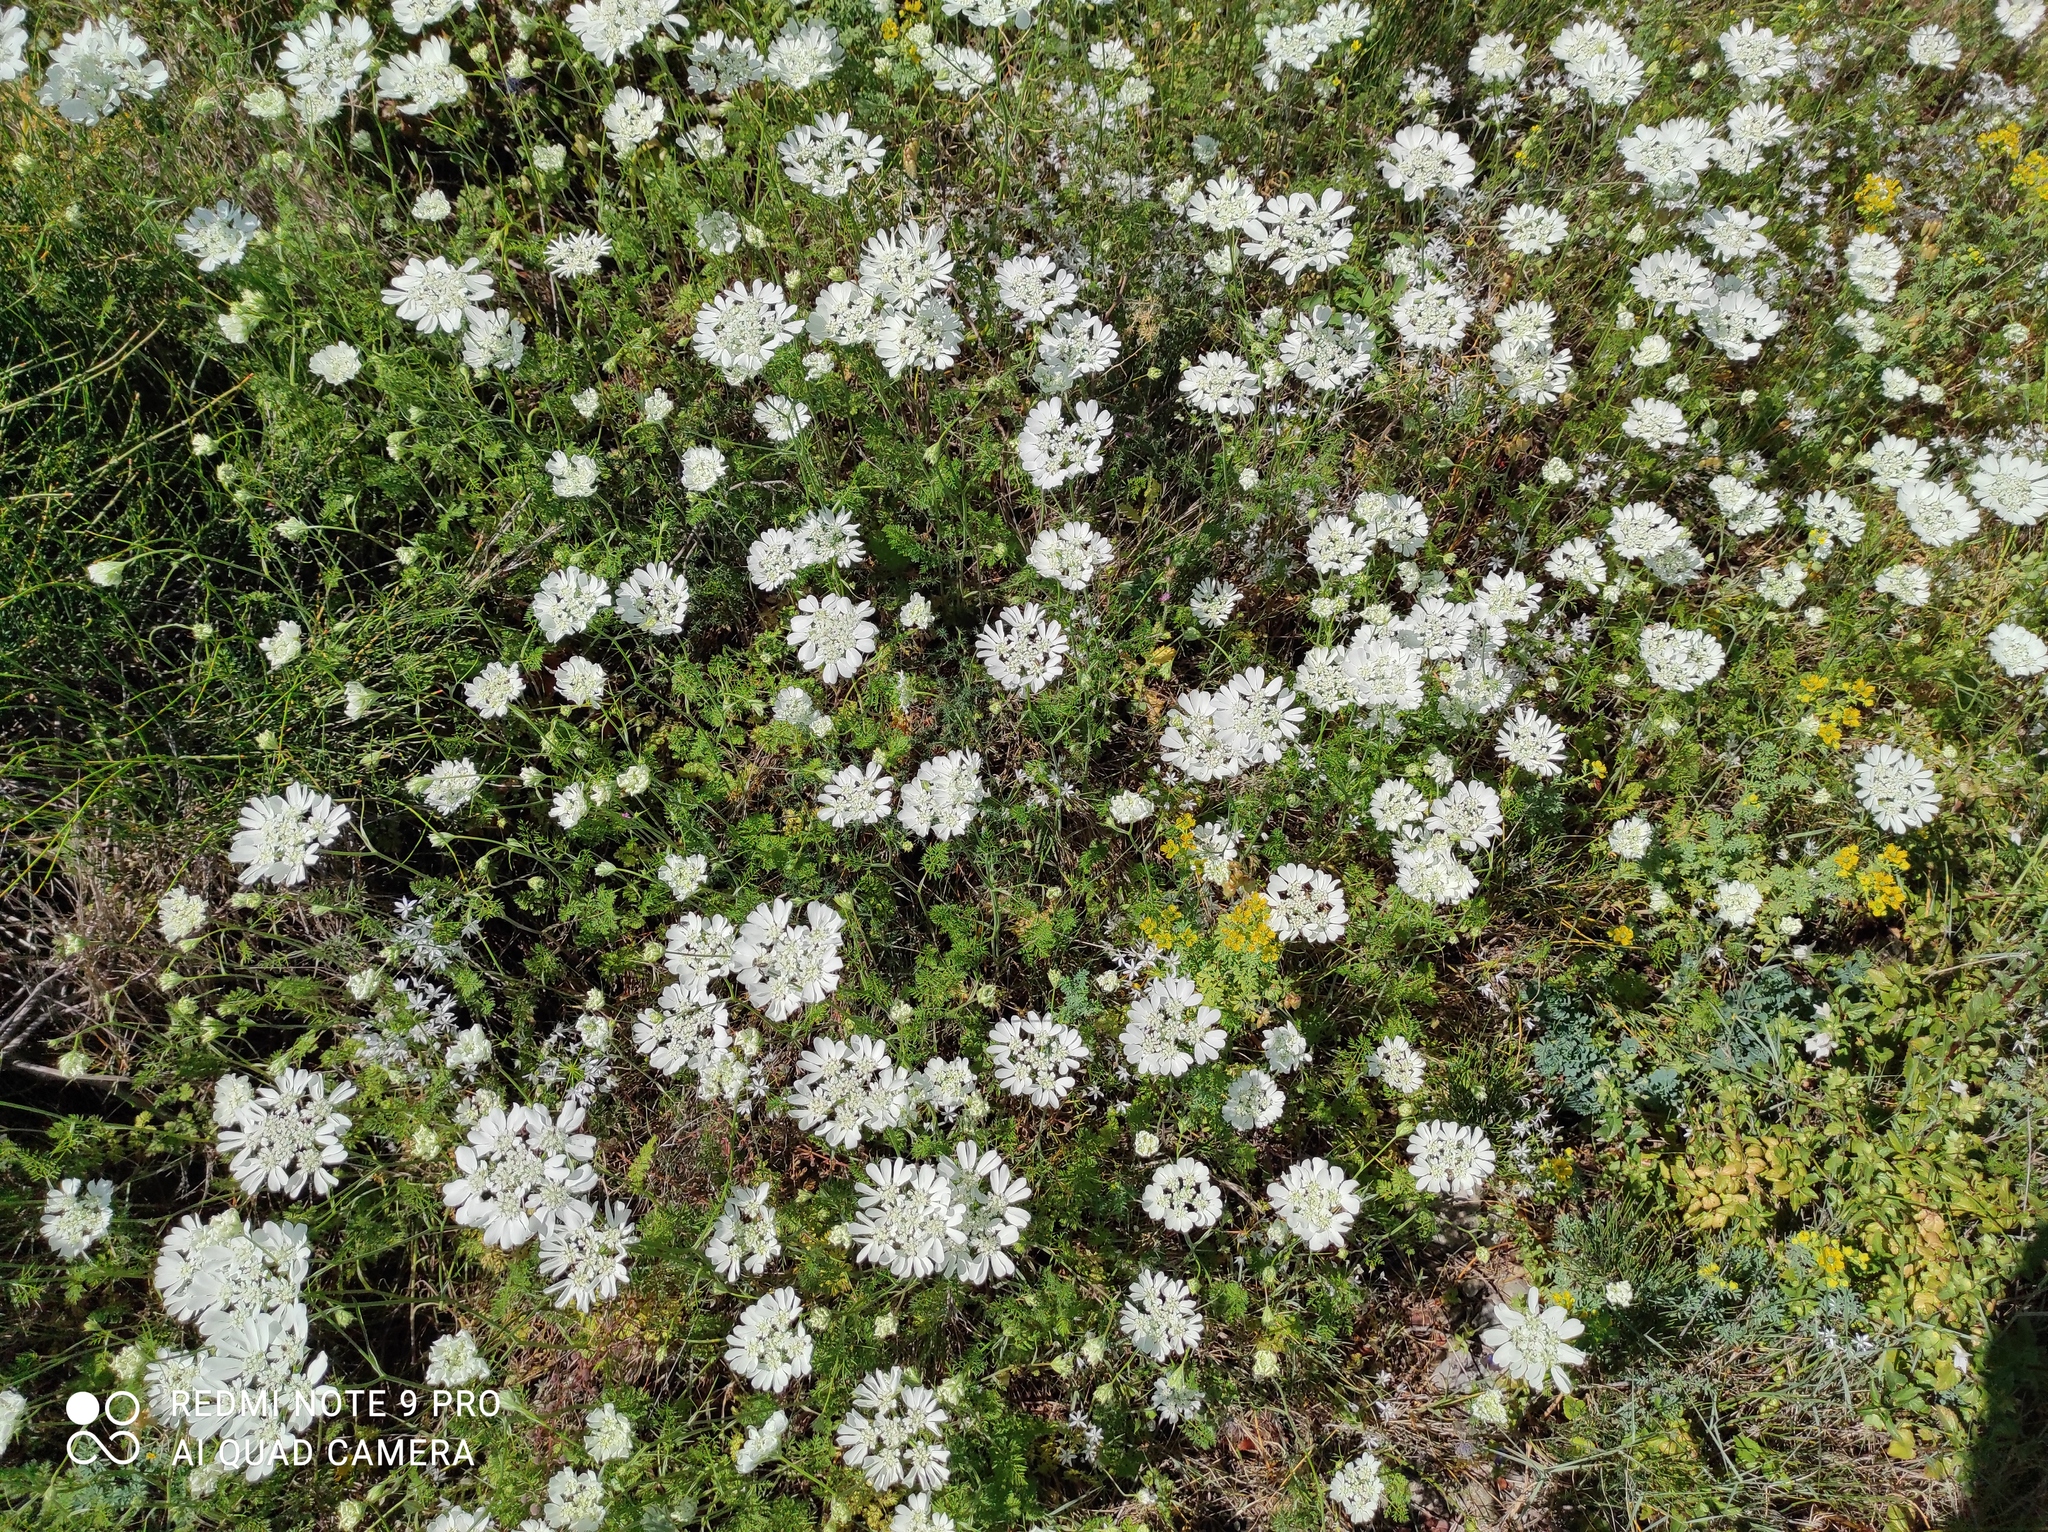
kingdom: Plantae
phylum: Tracheophyta
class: Magnoliopsida
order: Apiales
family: Apiaceae
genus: Orlaya
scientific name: Orlaya grandiflora
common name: White lace flower
